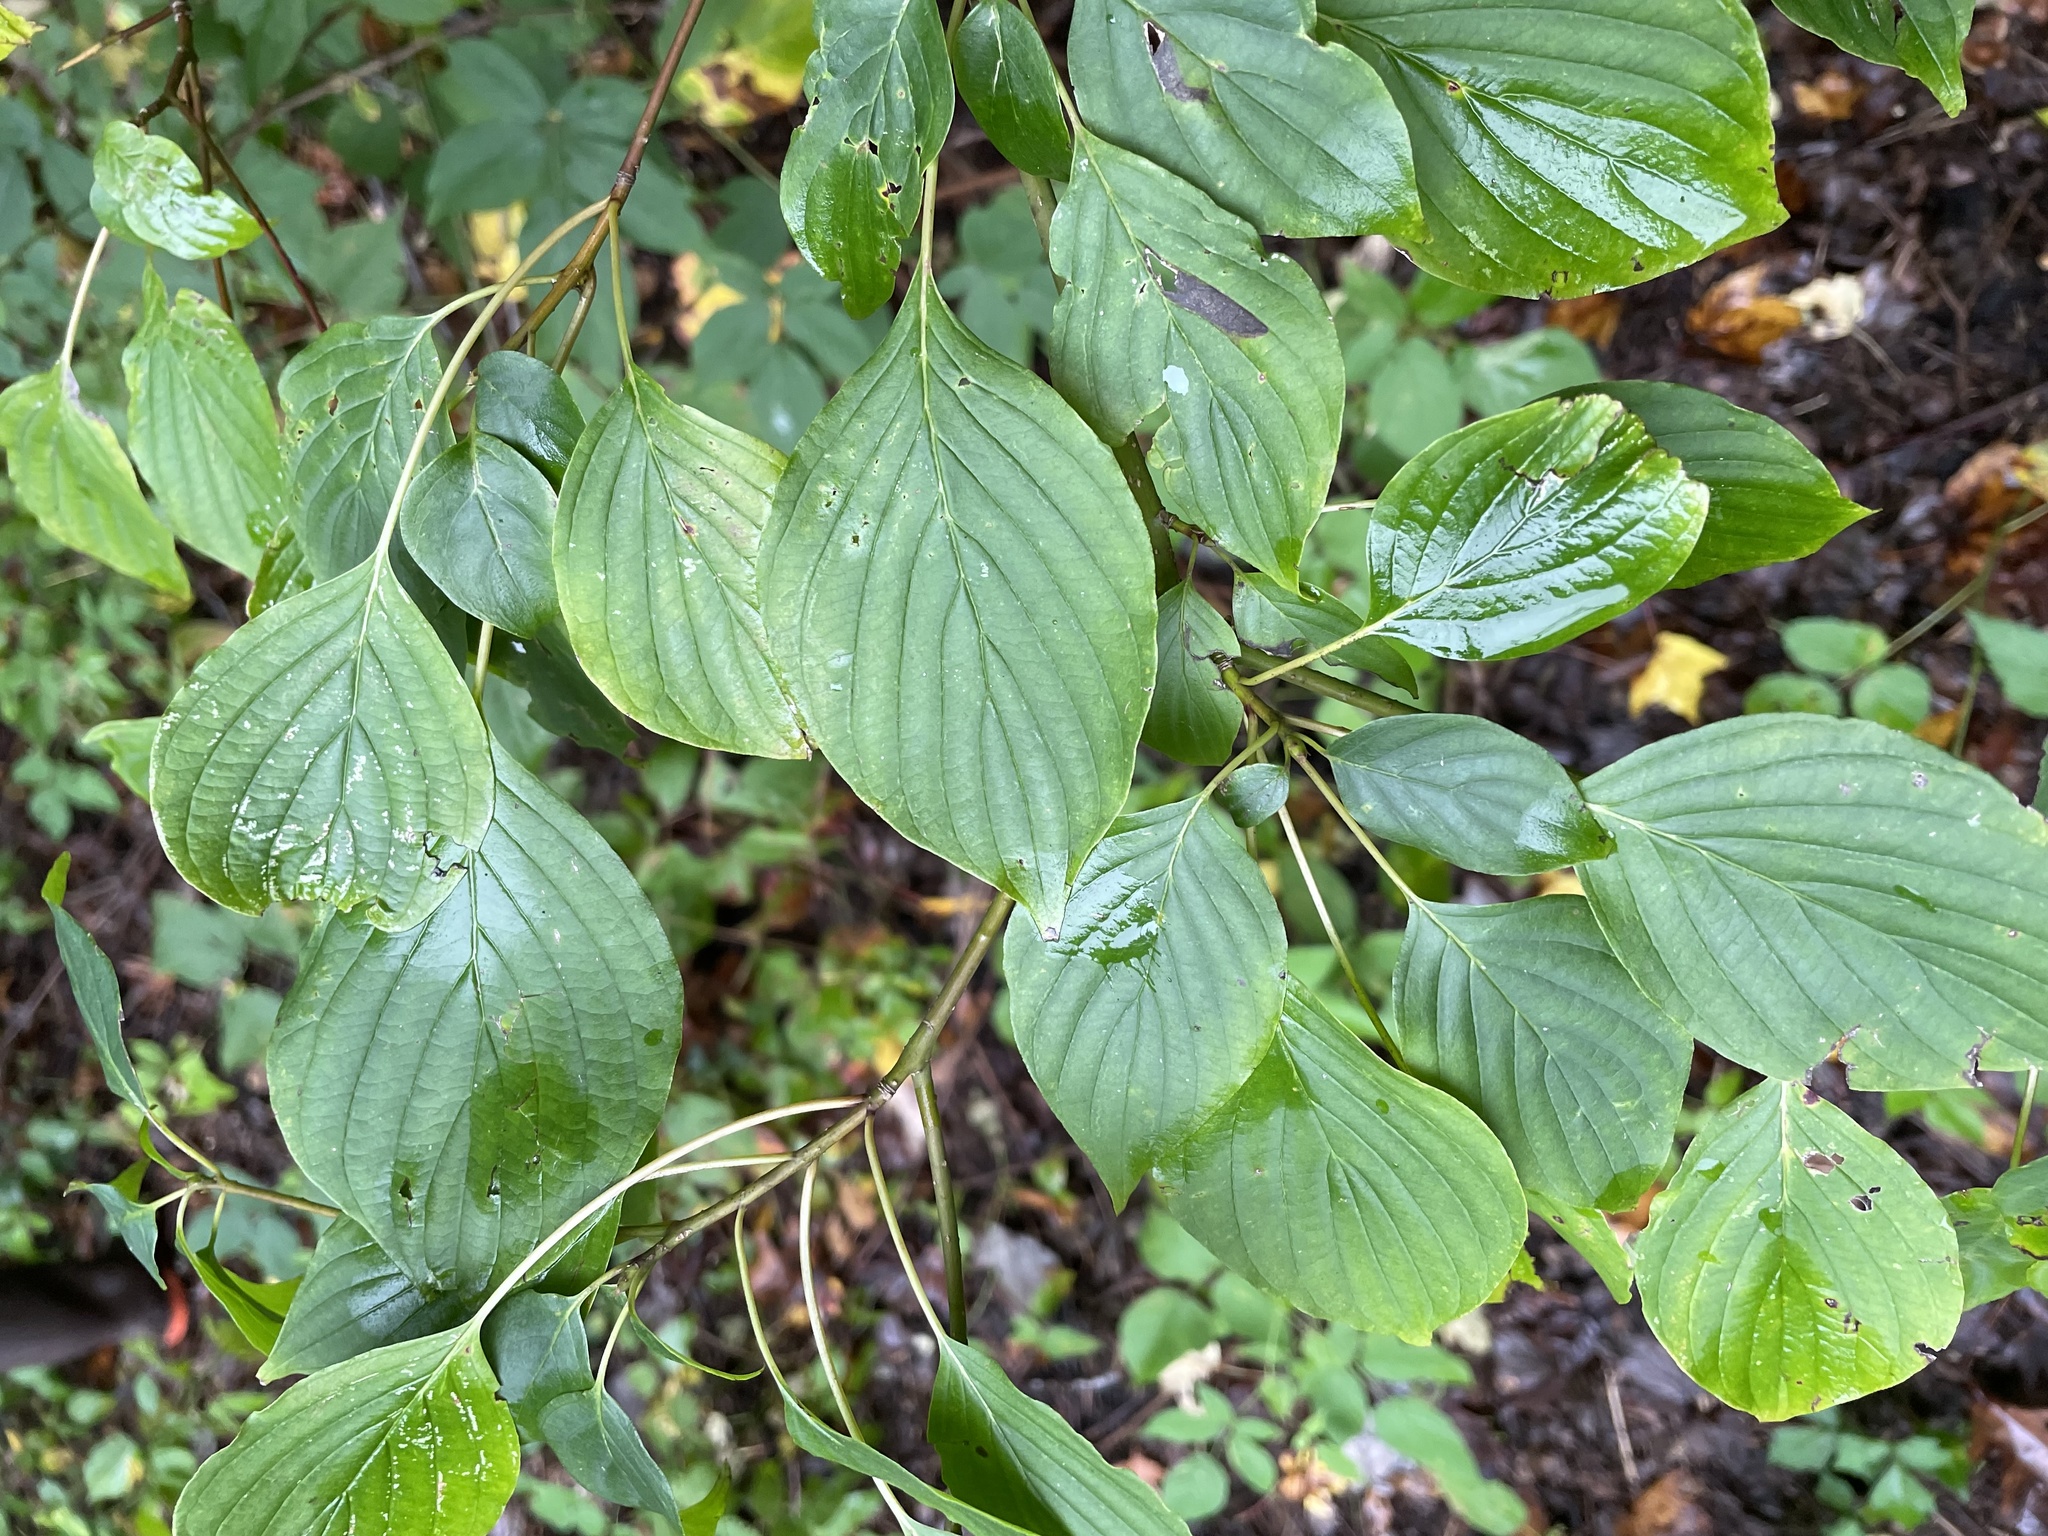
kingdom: Animalia
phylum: Arthropoda
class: Insecta
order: Diptera
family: Agromyzidae
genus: Phytomyza
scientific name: Phytomyza agromyzina
